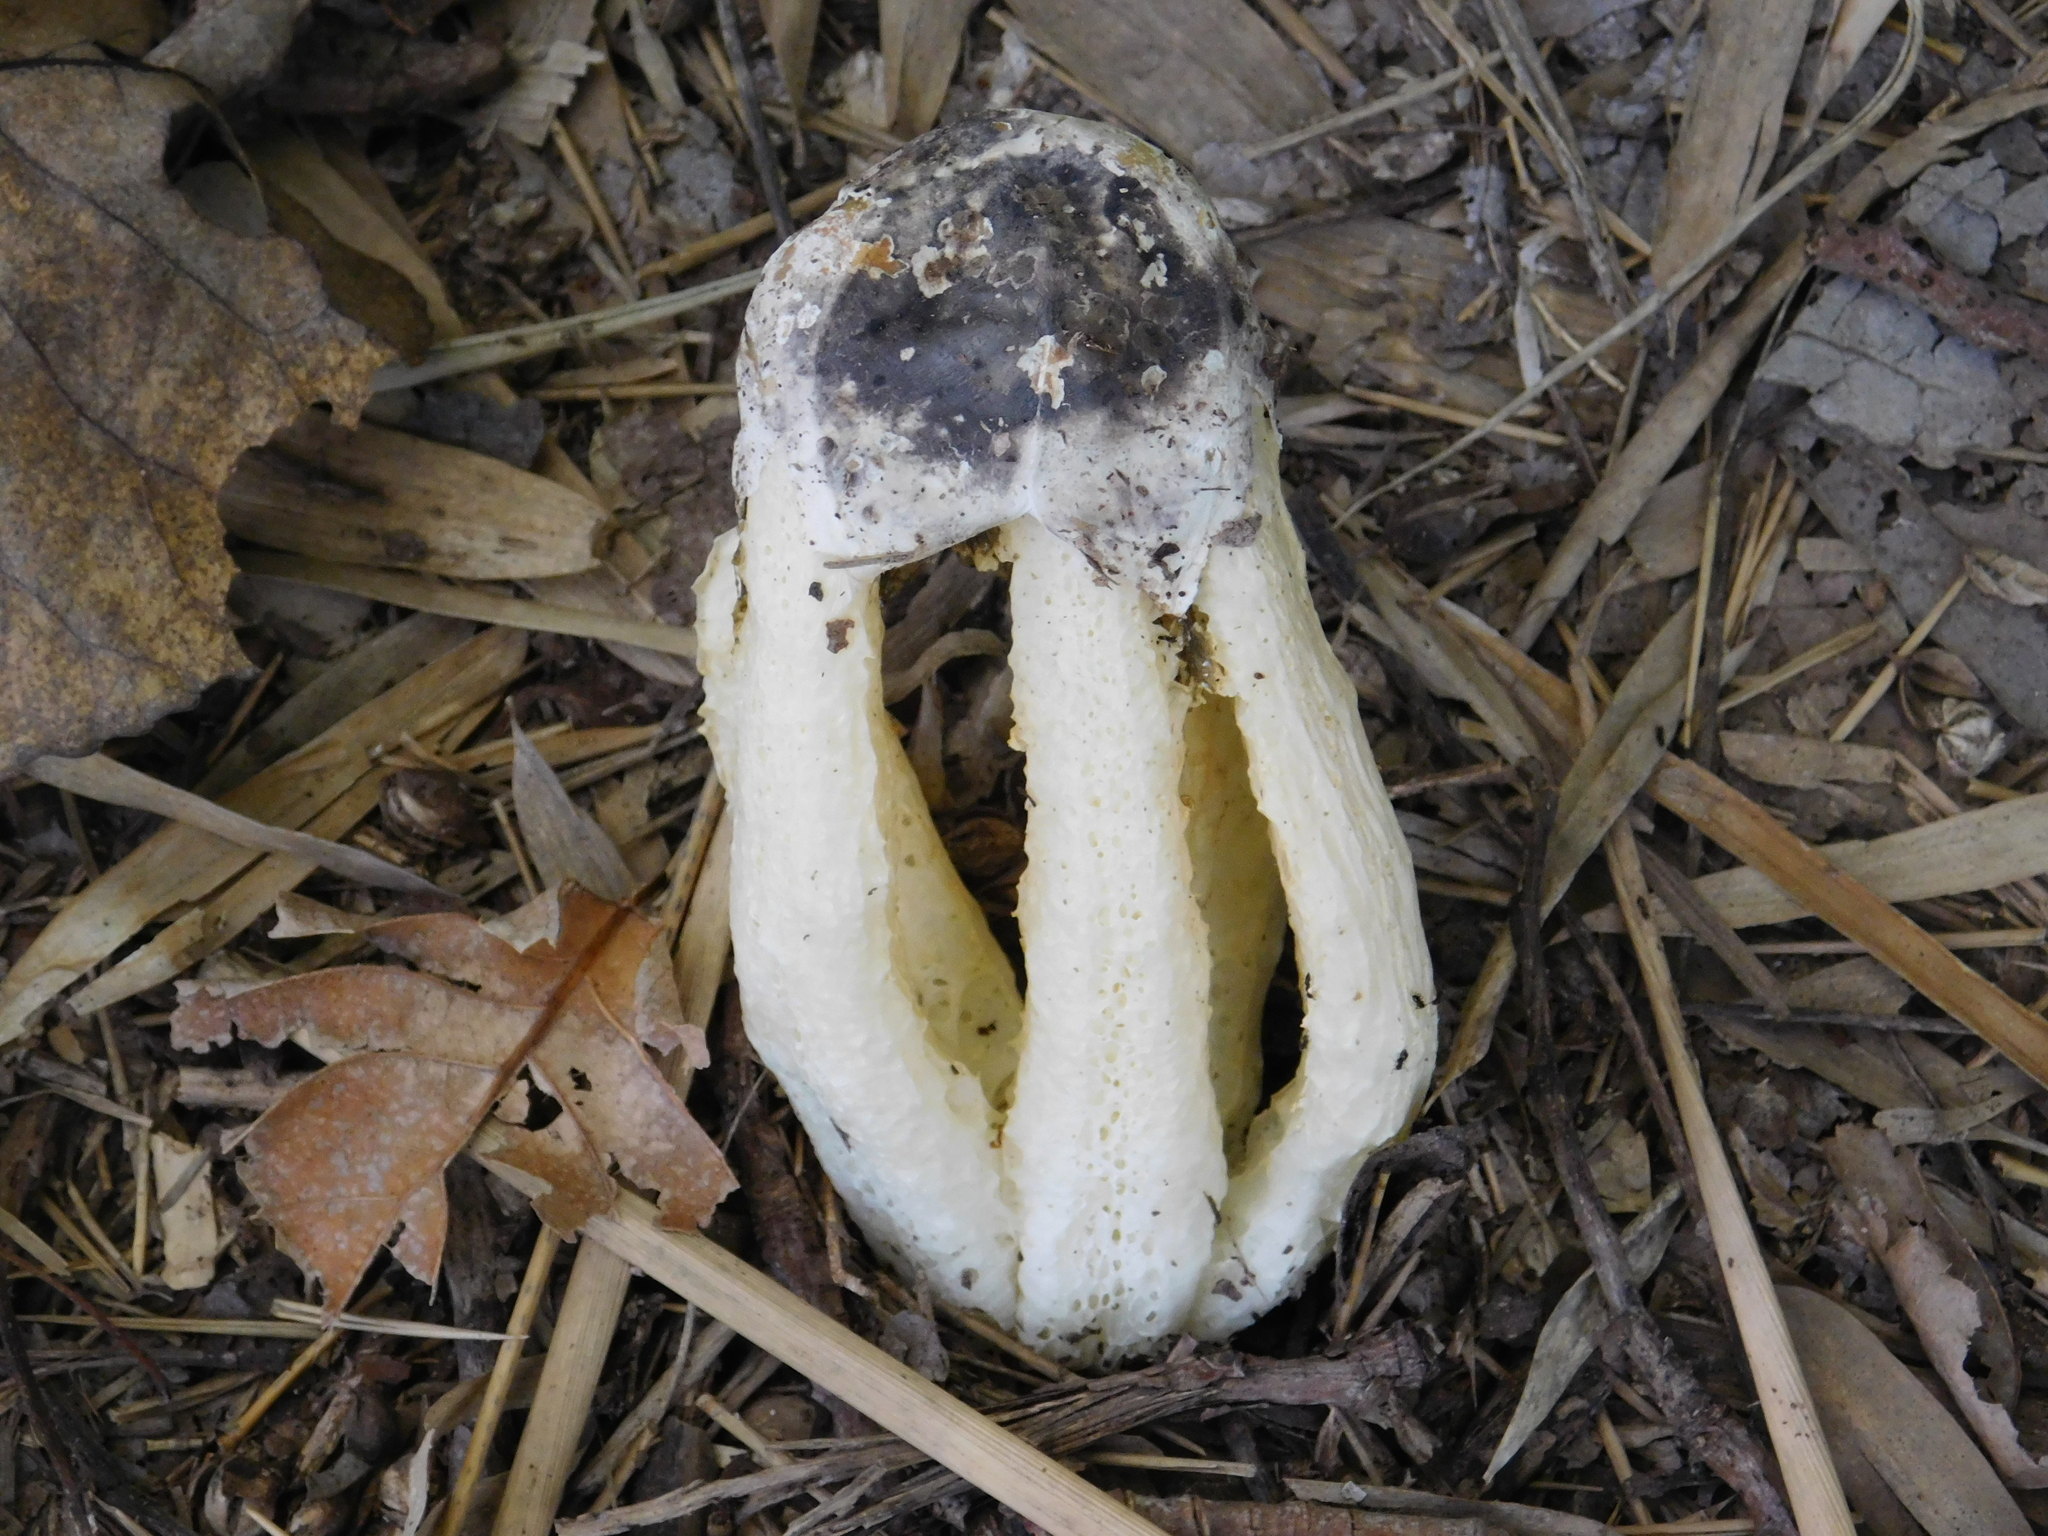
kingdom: Fungi
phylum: Basidiomycota
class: Agaricomycetes
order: Phallales
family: Phallaceae
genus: Blumenavia
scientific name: Blumenavia rhacodes
